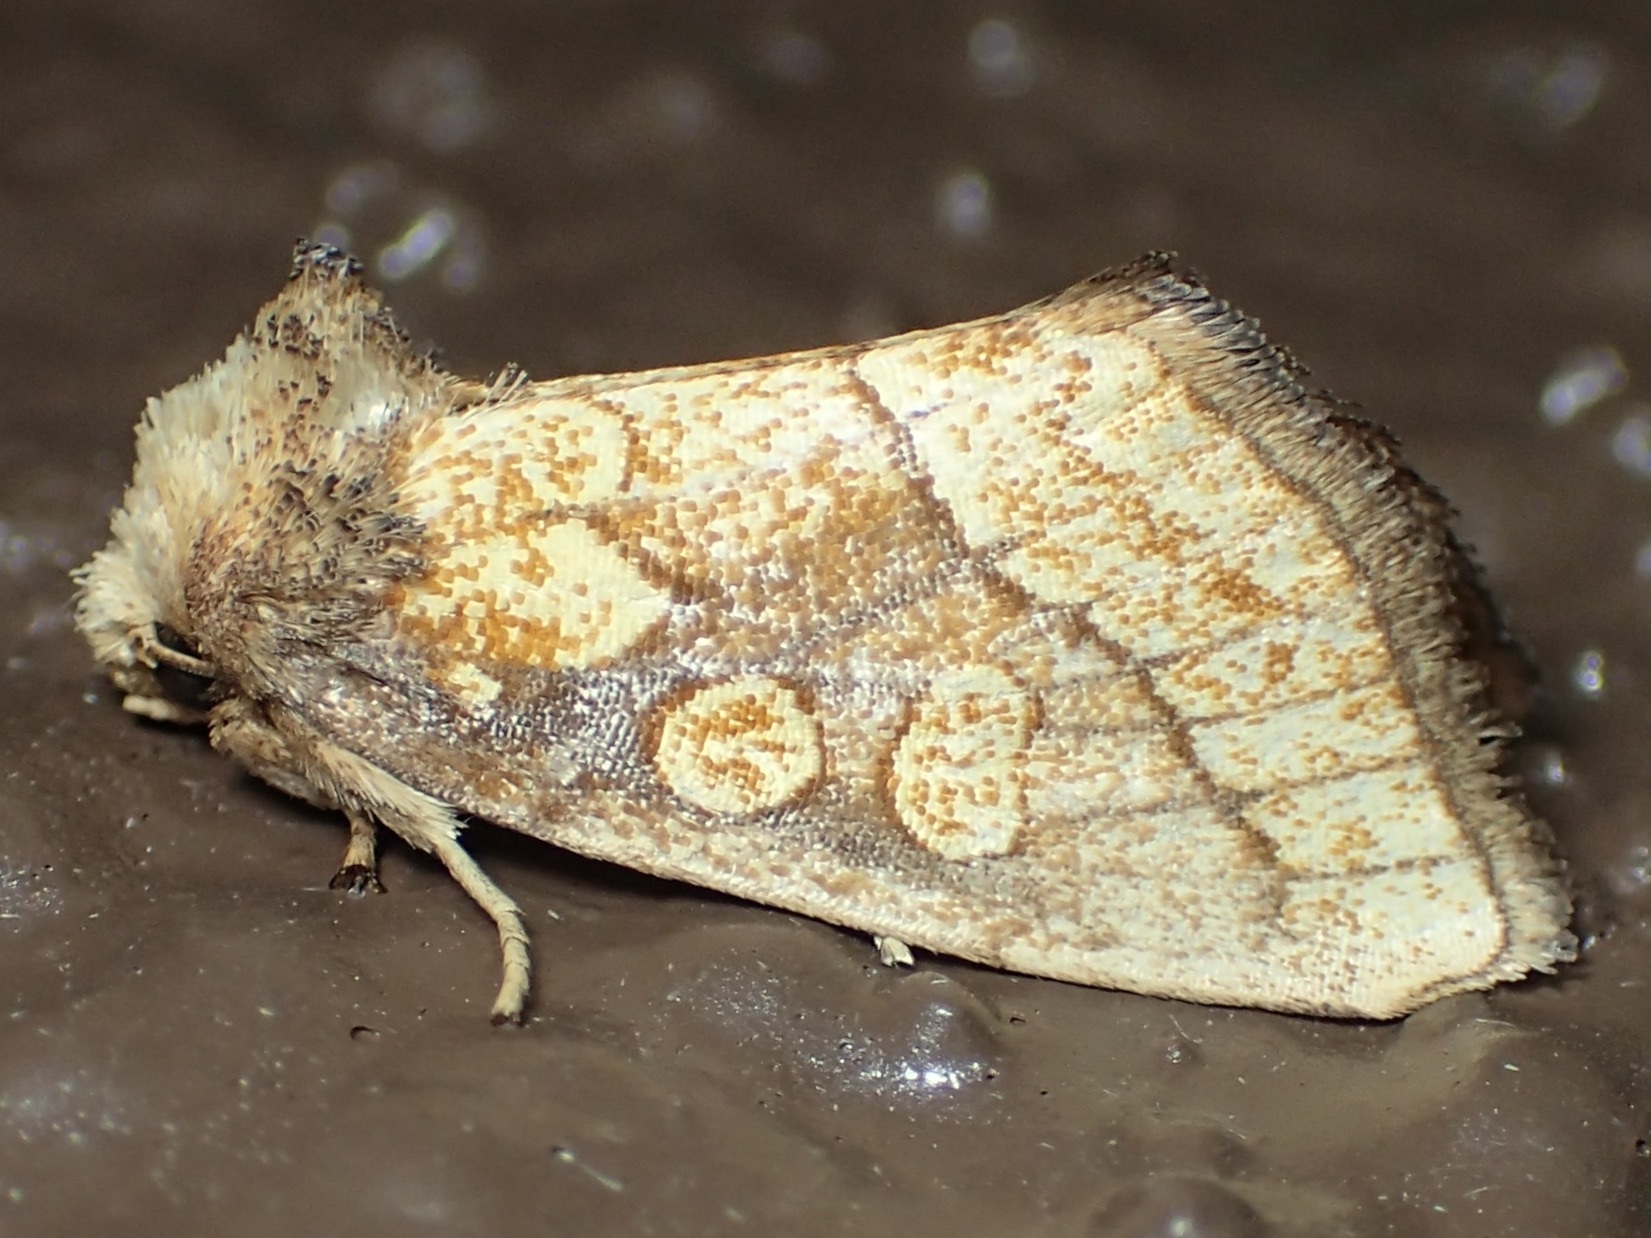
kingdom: Animalia
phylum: Arthropoda
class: Insecta
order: Lepidoptera
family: Noctuidae
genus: Nocloa
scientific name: Nocloa alcandra
